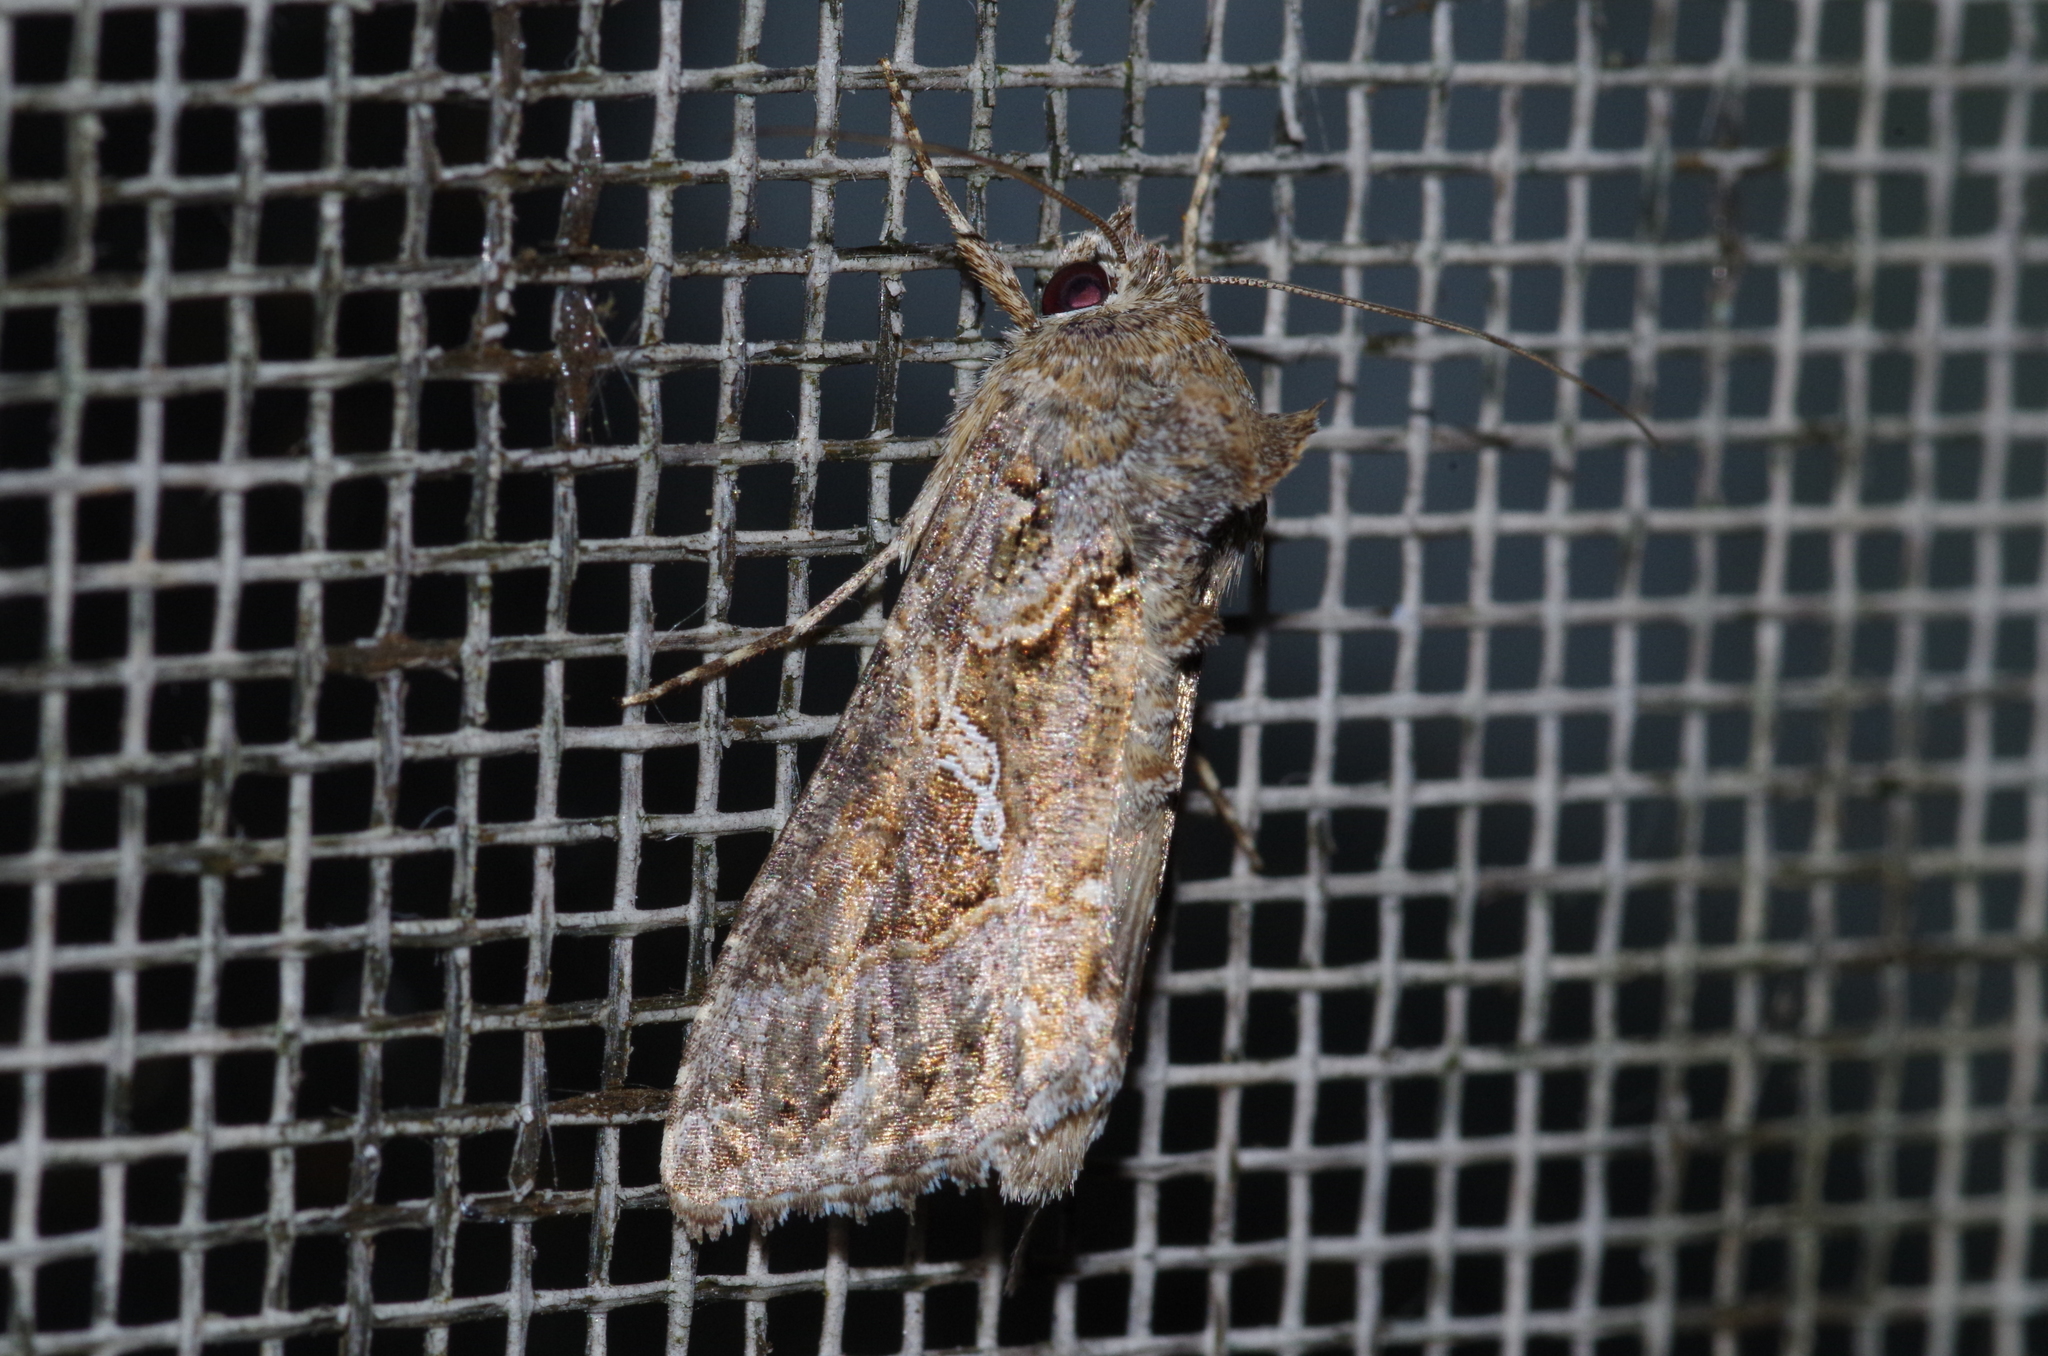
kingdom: Animalia
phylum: Arthropoda
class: Insecta
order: Lepidoptera
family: Noctuidae
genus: Trichoplusia
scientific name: Trichoplusia ni
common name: Ni moth
